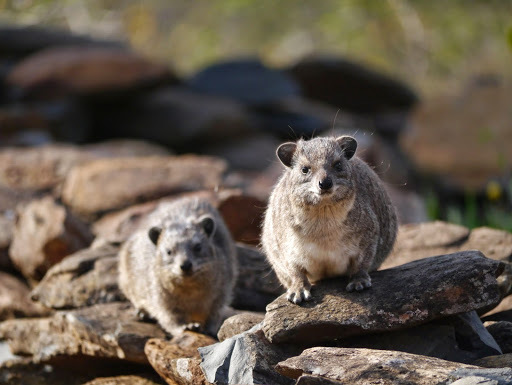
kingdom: Animalia
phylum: Chordata
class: Mammalia
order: Hyracoidea
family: Procaviidae
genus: Heterohyrax
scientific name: Heterohyrax brucei
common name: Bush hyrax
